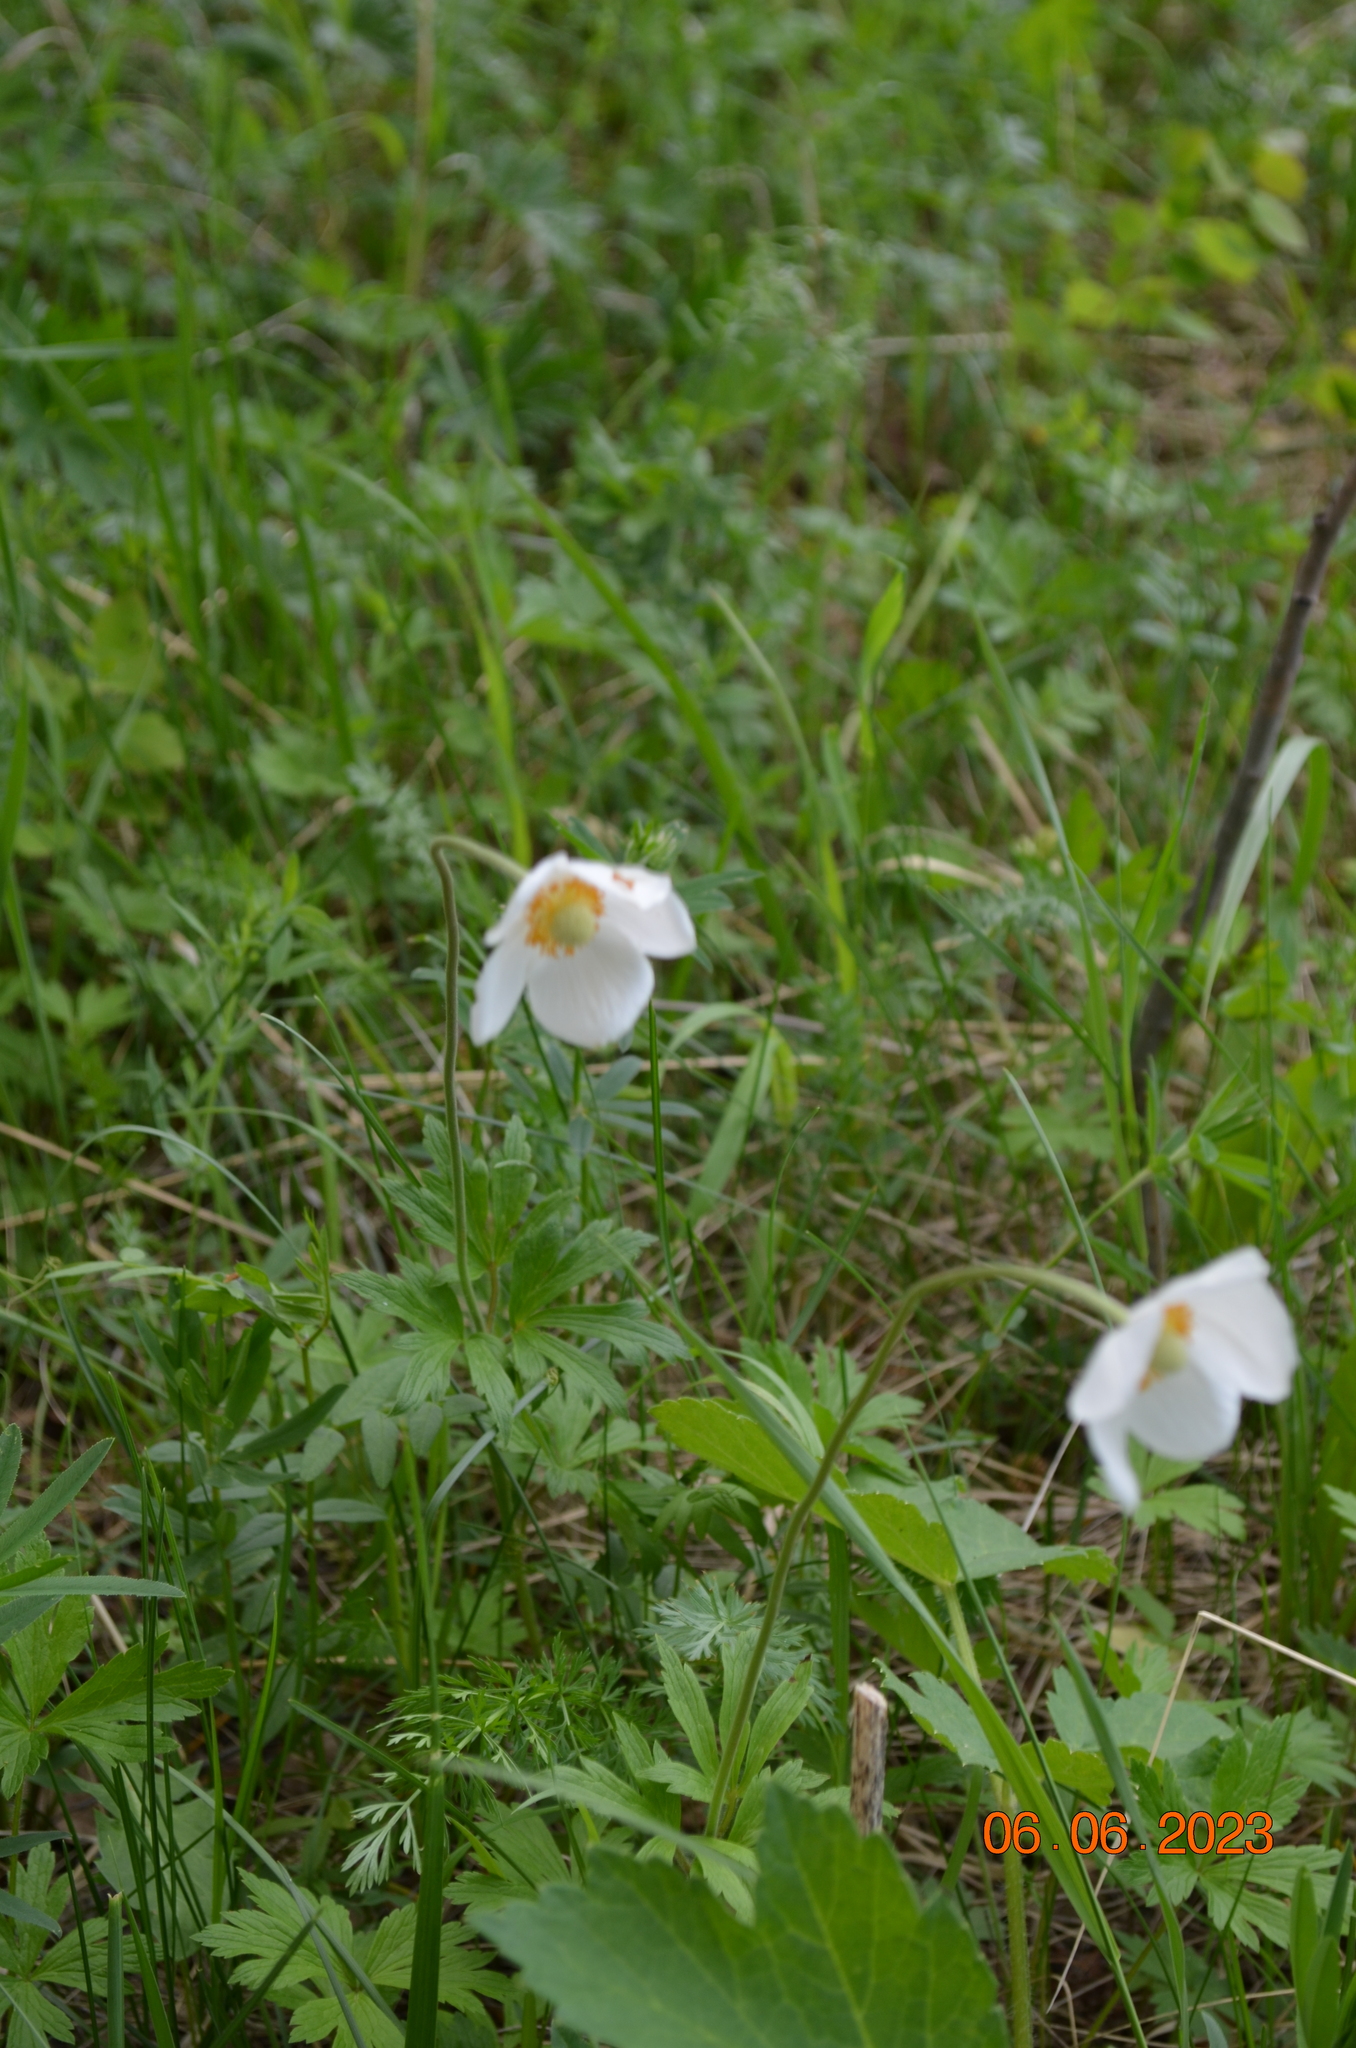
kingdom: Plantae
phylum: Tracheophyta
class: Magnoliopsida
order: Ranunculales
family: Ranunculaceae
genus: Anemone
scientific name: Anemone sylvestris
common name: Snowdrop anemone
